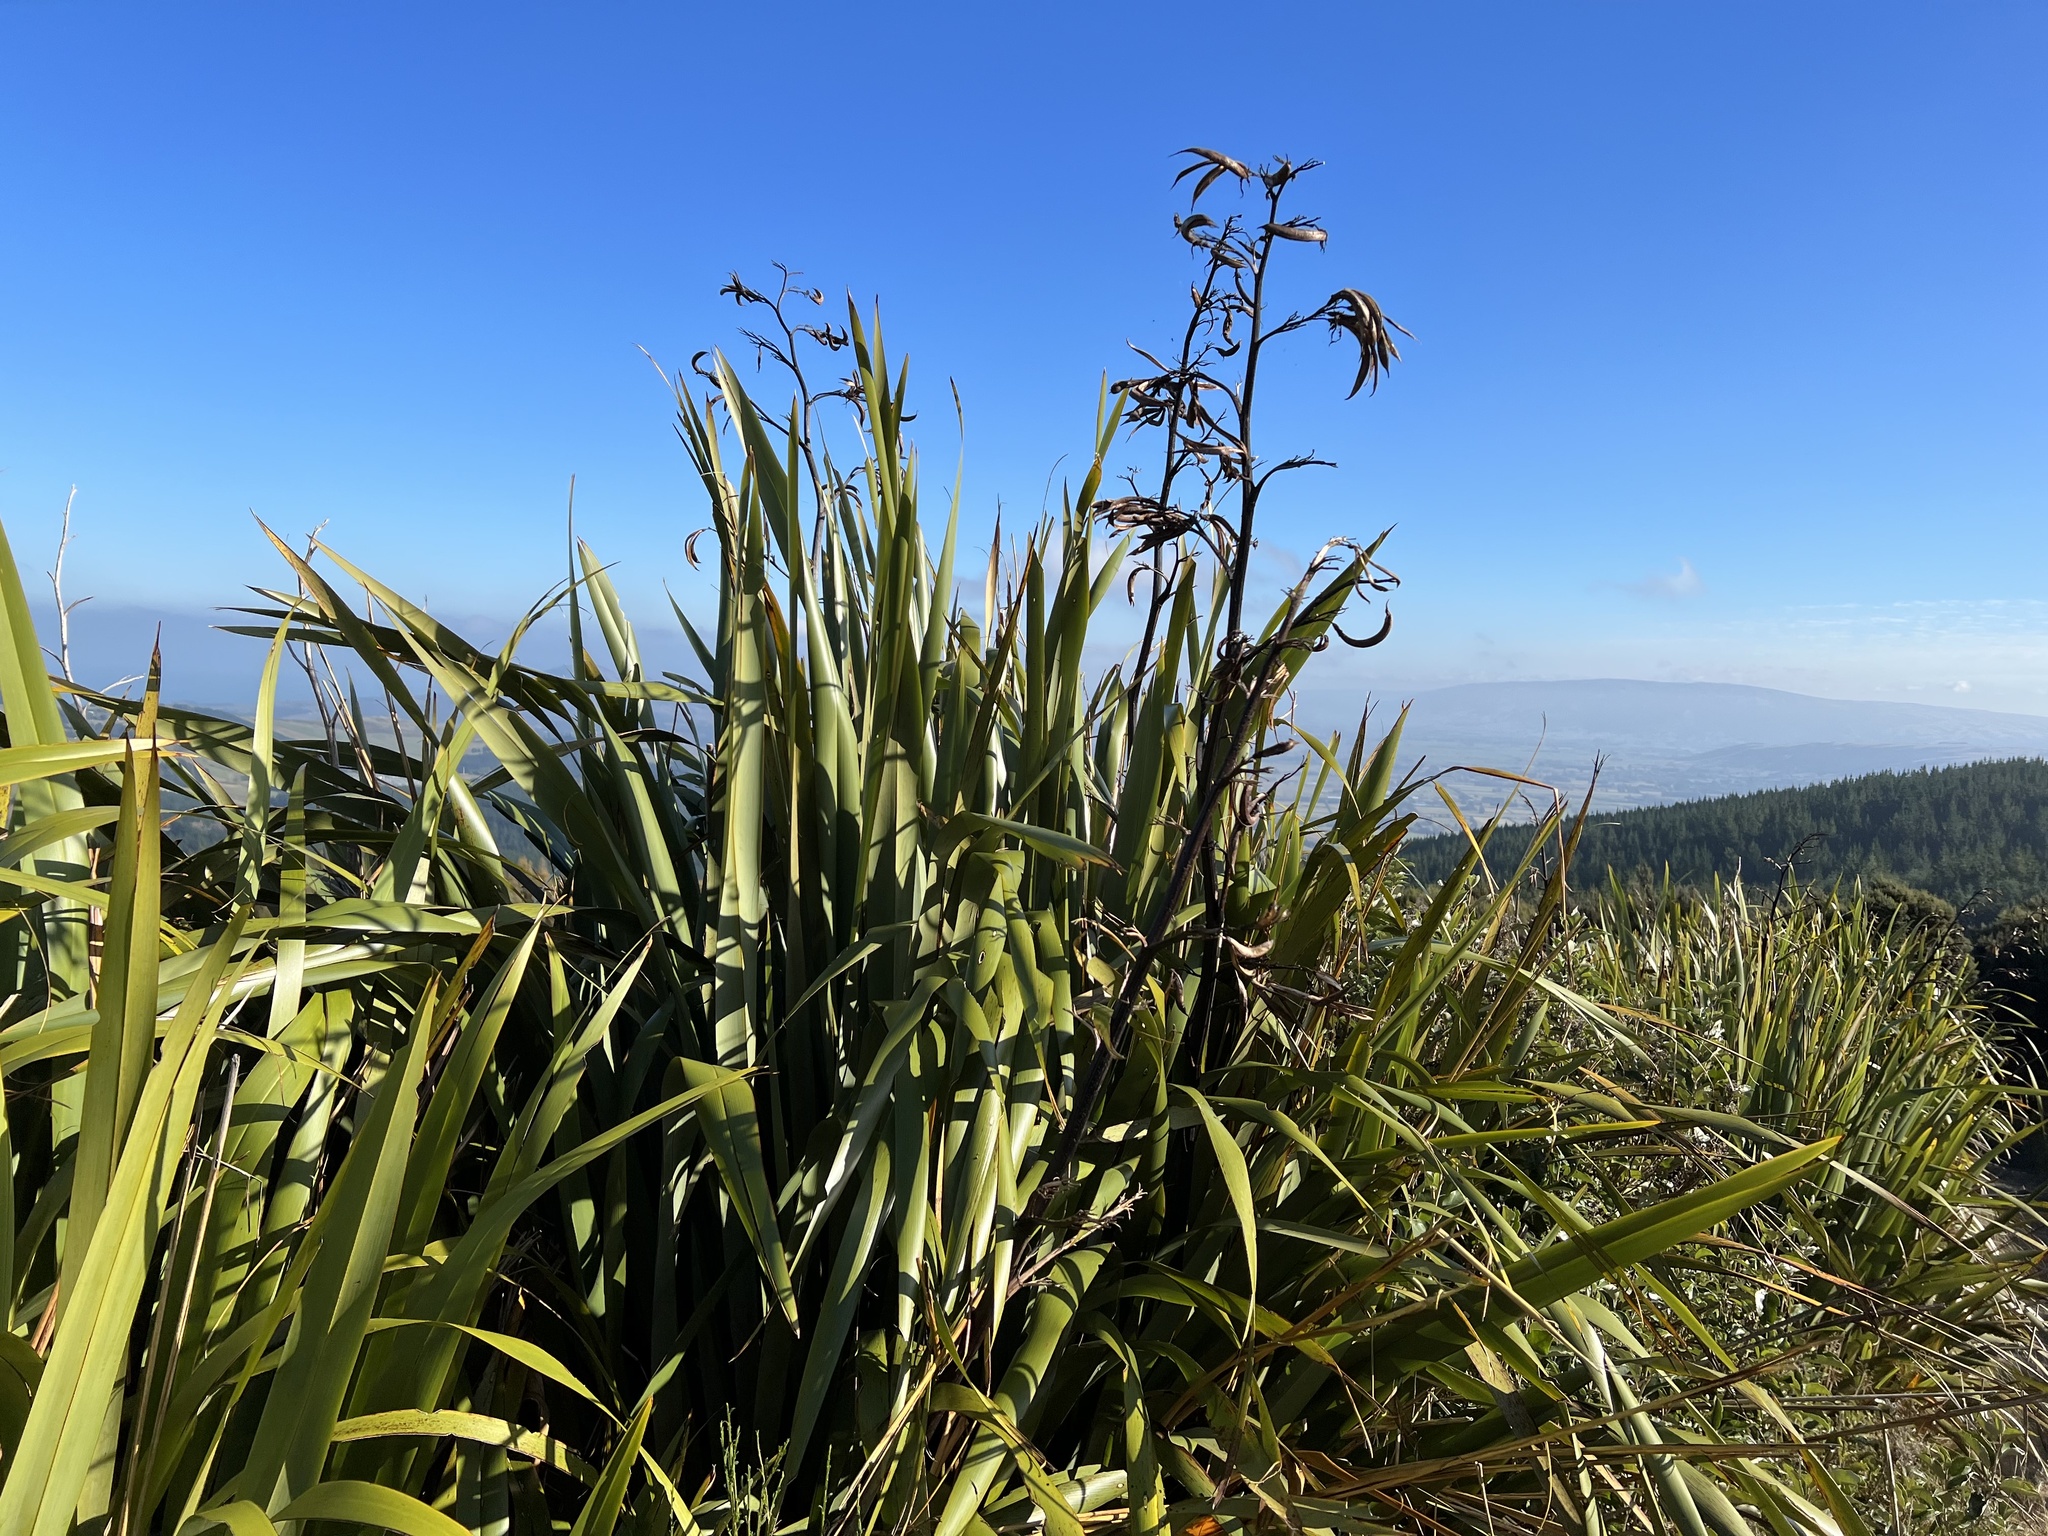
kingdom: Plantae
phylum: Tracheophyta
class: Liliopsida
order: Asparagales
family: Asphodelaceae
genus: Phormium
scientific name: Phormium tenax
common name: New zealand flax
